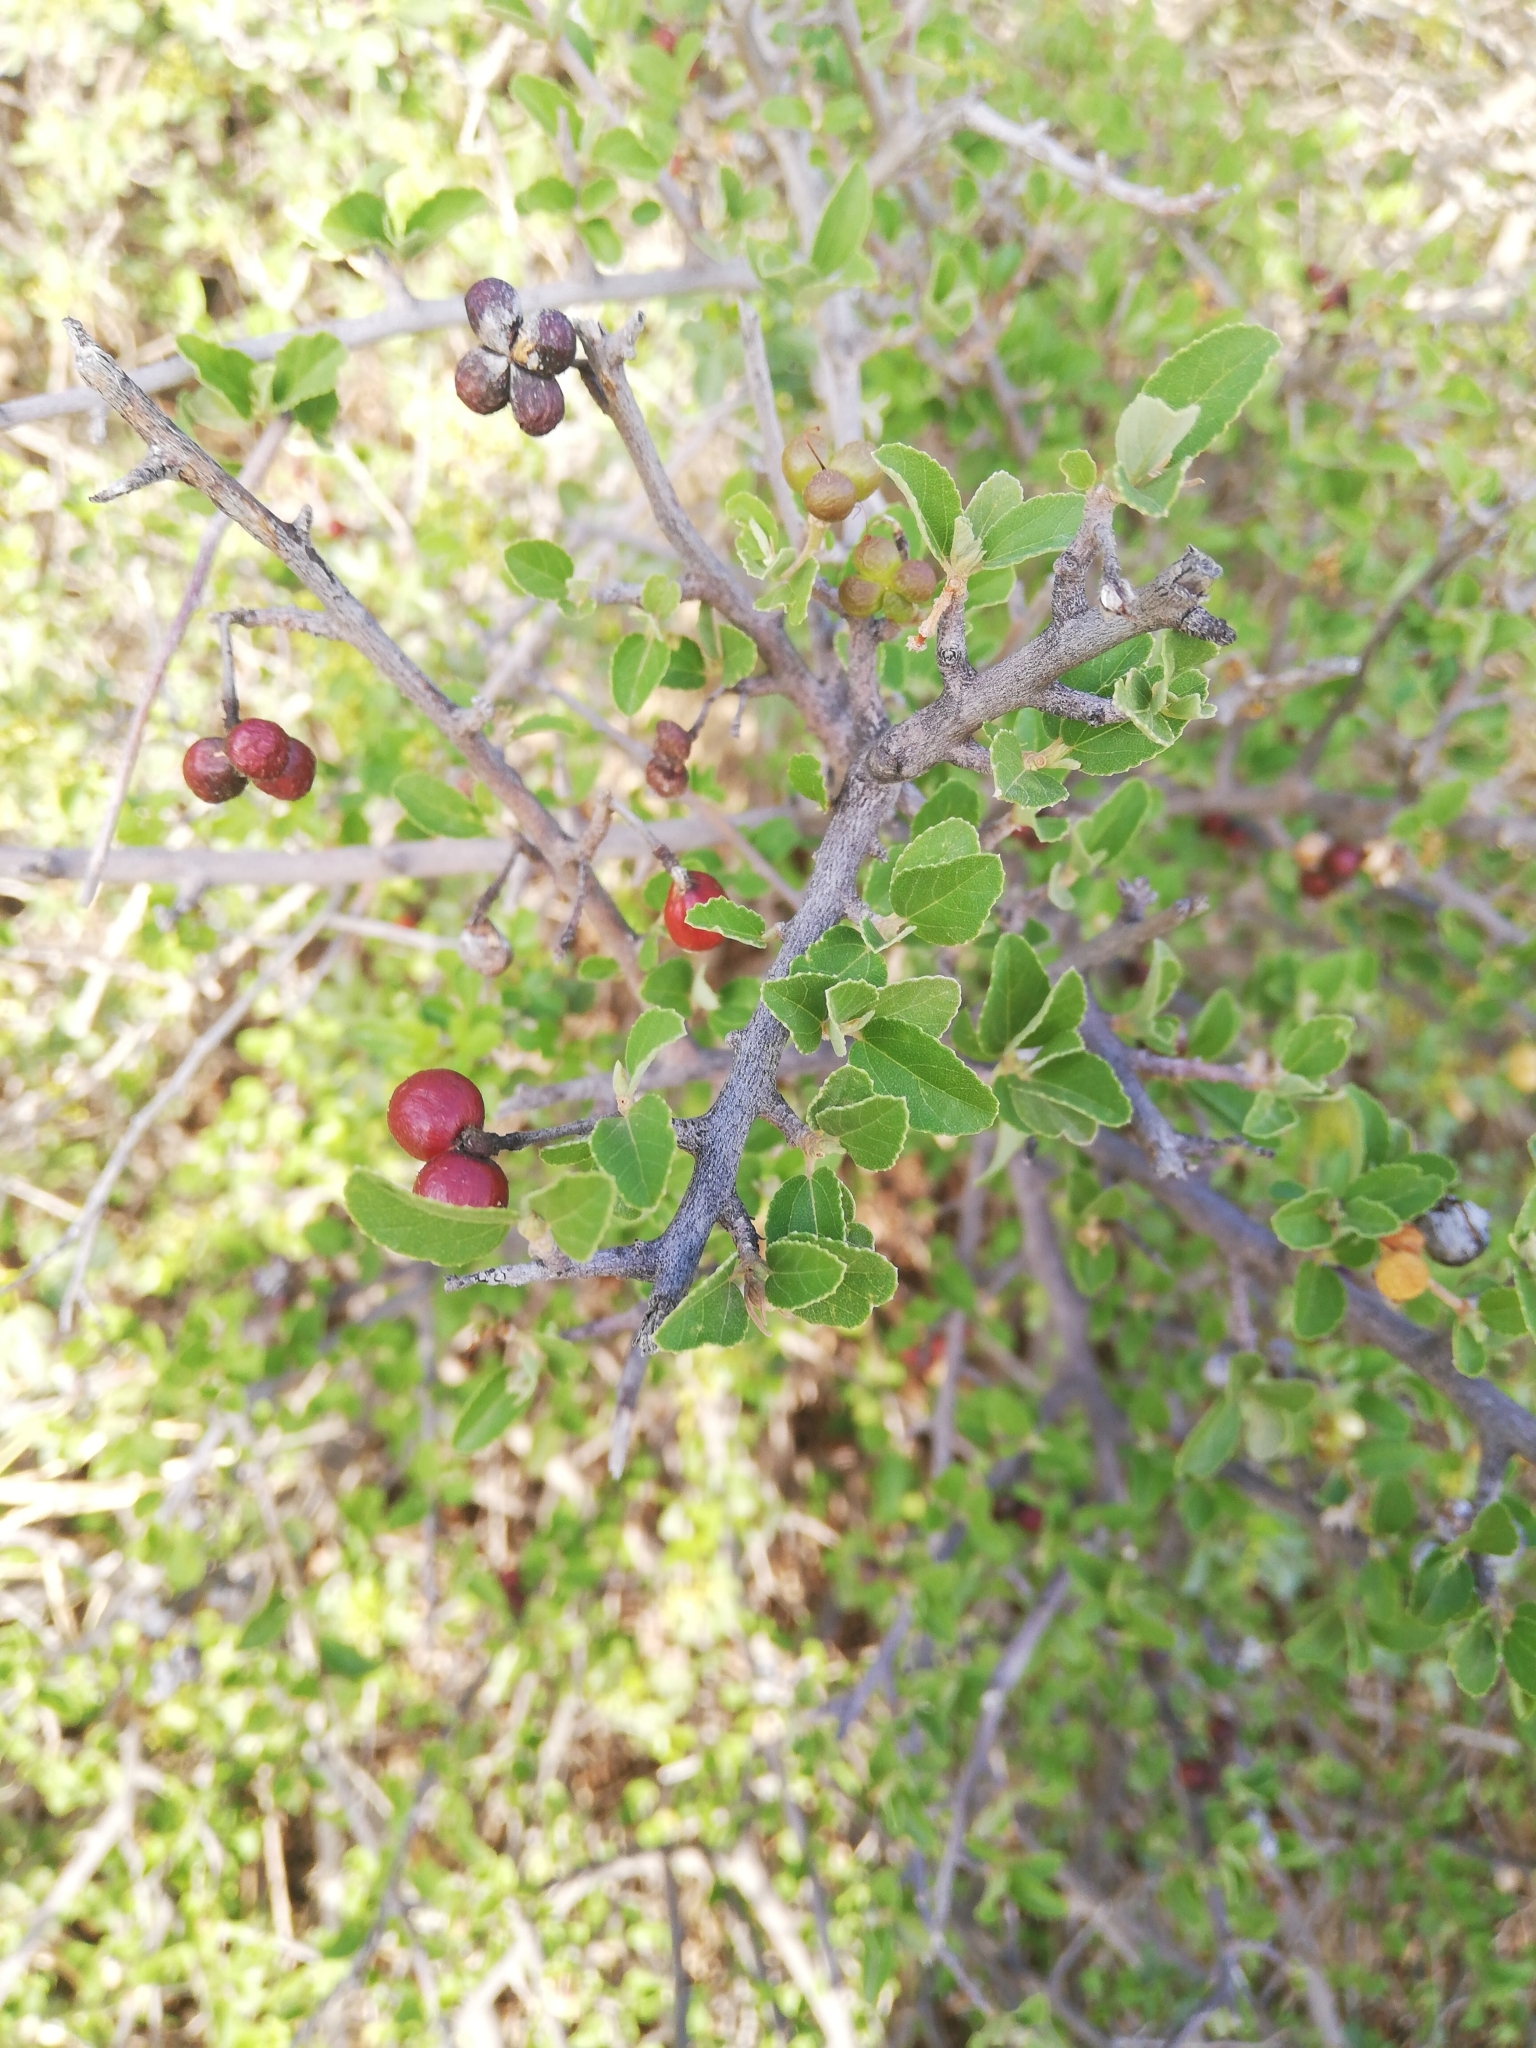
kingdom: Plantae
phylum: Tracheophyta
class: Magnoliopsida
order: Malvales
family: Malvaceae
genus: Grewia
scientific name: Grewia robusta
